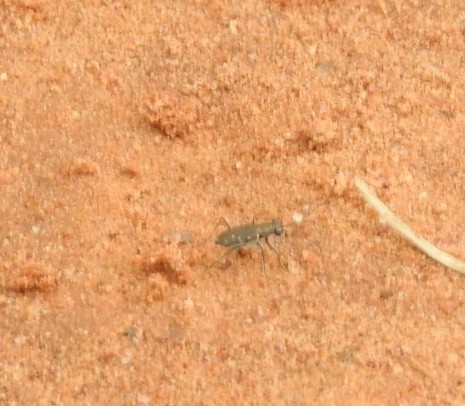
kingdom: Animalia
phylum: Arthropoda
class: Insecta
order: Coleoptera
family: Carabidae
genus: Cylindera
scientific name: Cylindera minuta
